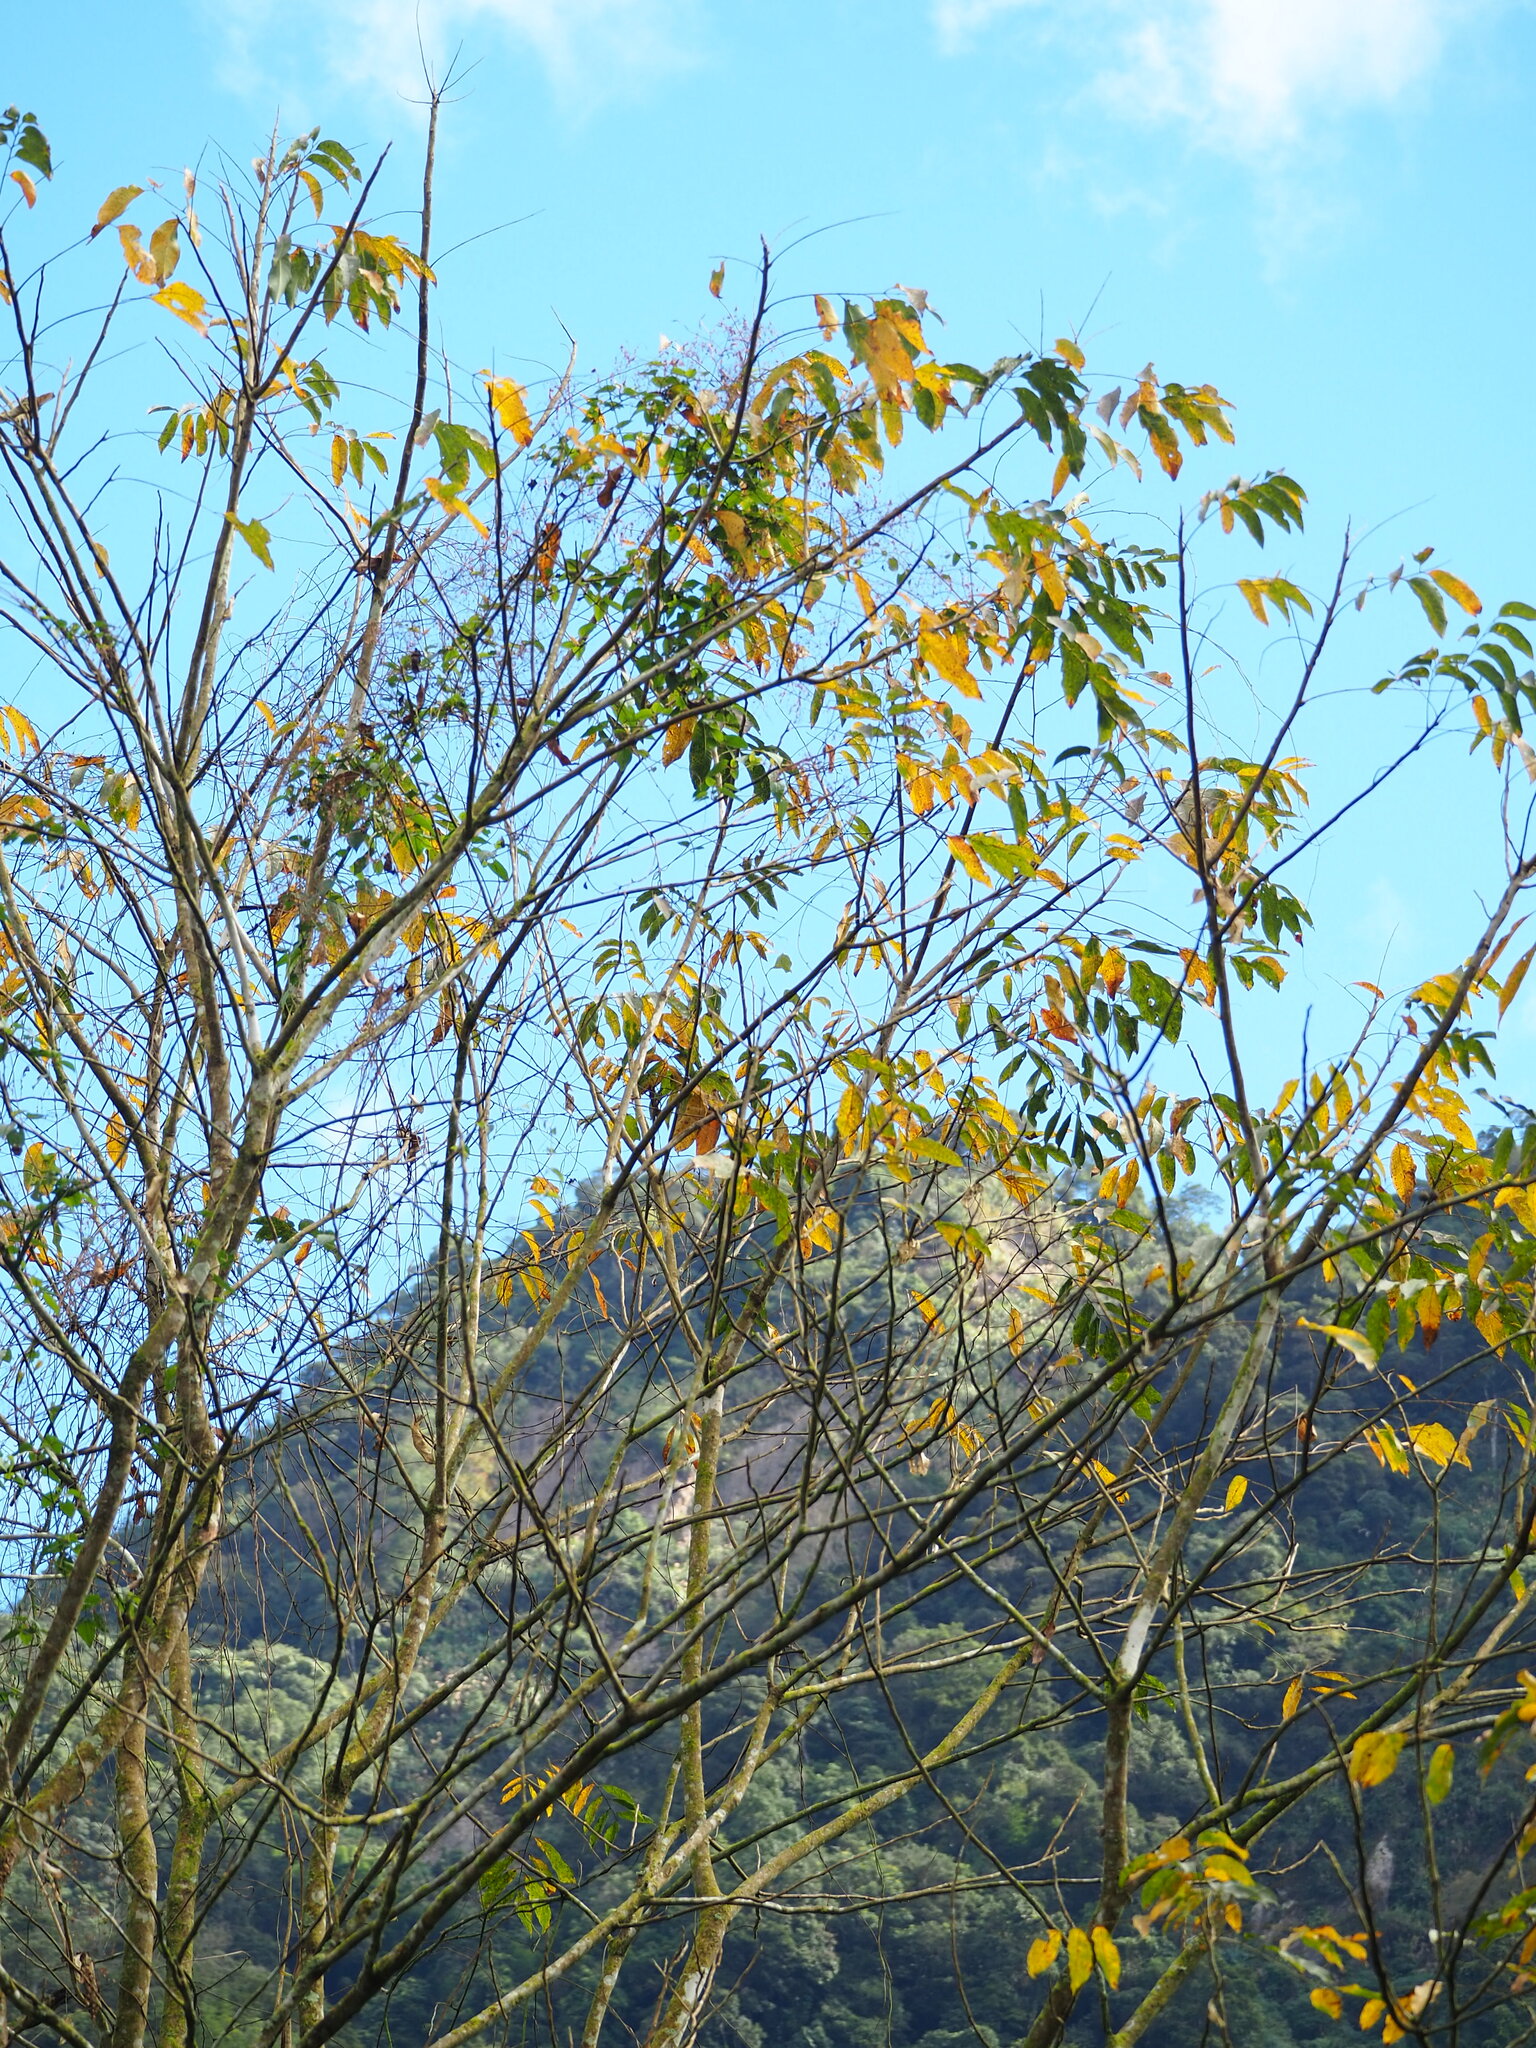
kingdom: Plantae
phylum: Tracheophyta
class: Magnoliopsida
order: Sapindales
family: Sapindaceae
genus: Sapindus
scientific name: Sapindus mukorossi
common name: Chinese soapberry
